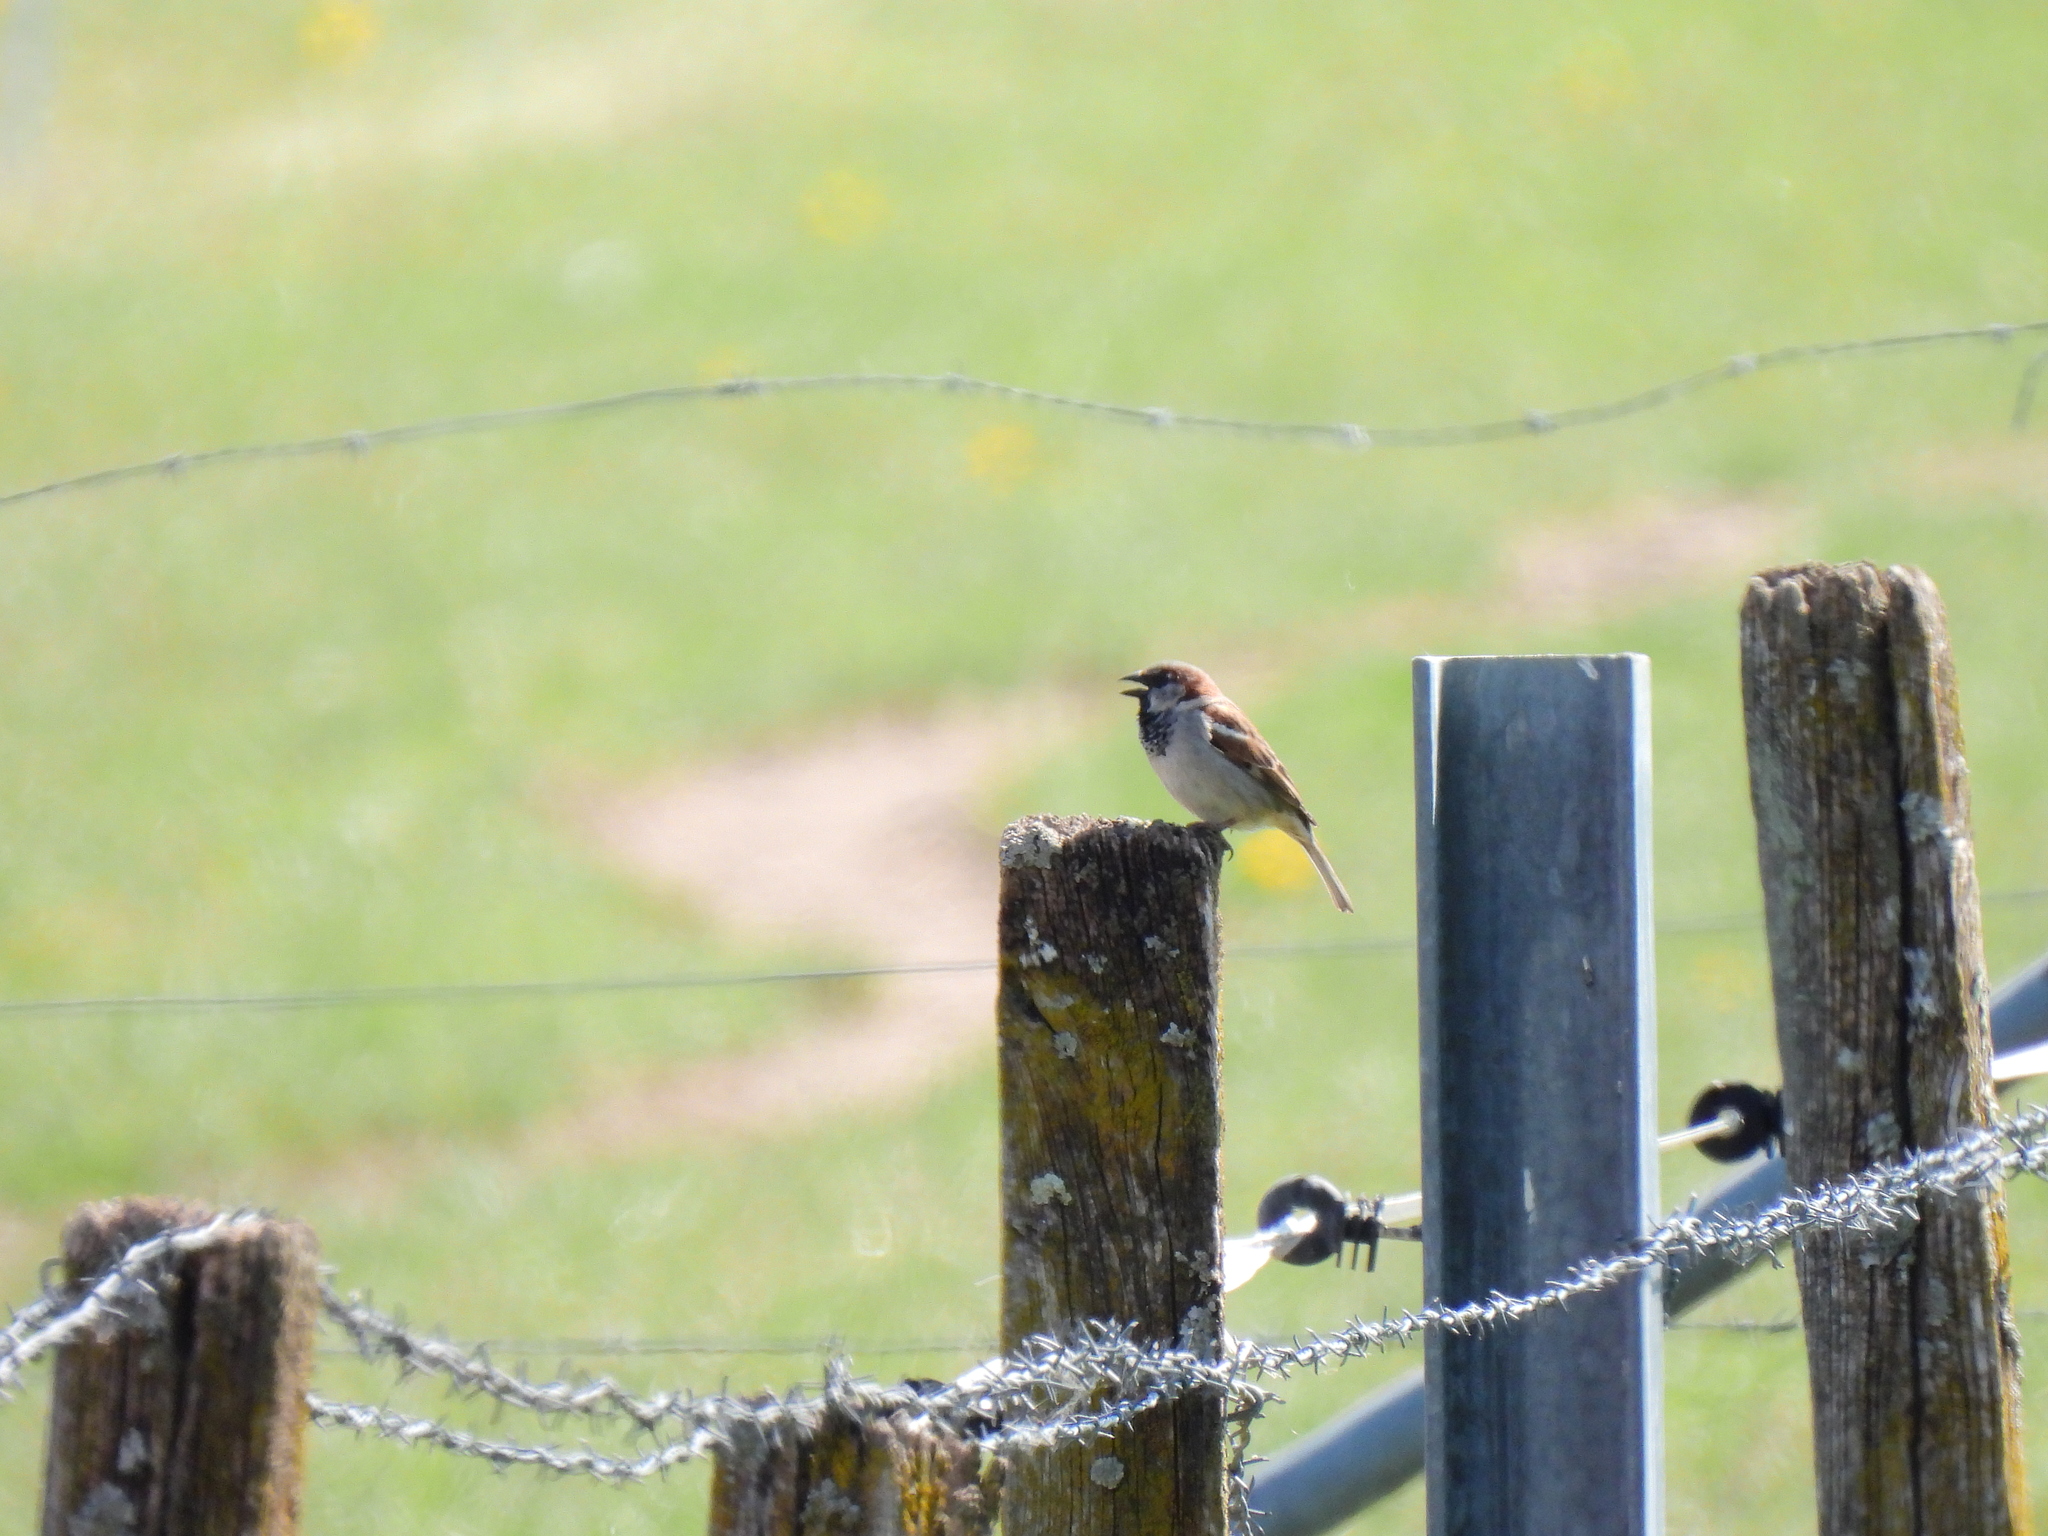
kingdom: Animalia
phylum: Chordata
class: Aves
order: Passeriformes
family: Passeridae
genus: Passer
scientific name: Passer domesticus
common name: House sparrow
